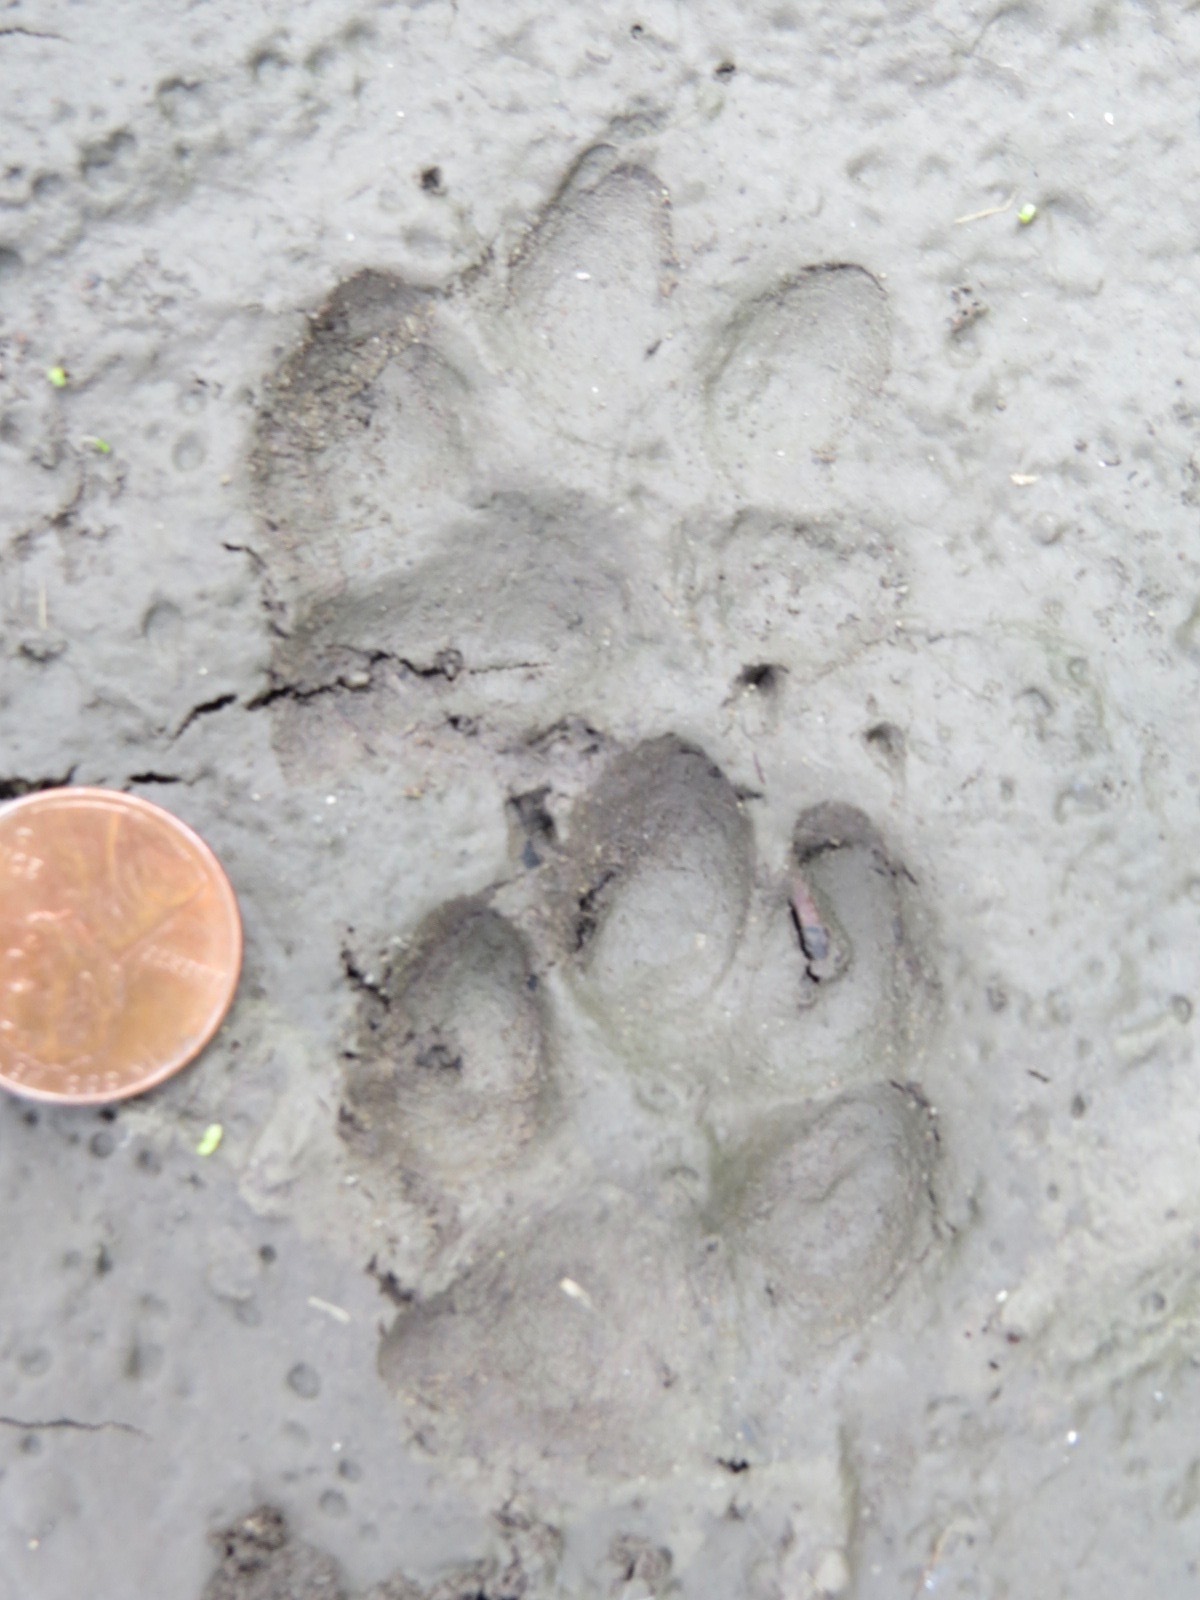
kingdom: Animalia
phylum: Chordata
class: Mammalia
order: Carnivora
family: Canidae
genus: Urocyon
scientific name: Urocyon cinereoargenteus
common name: Gray fox
